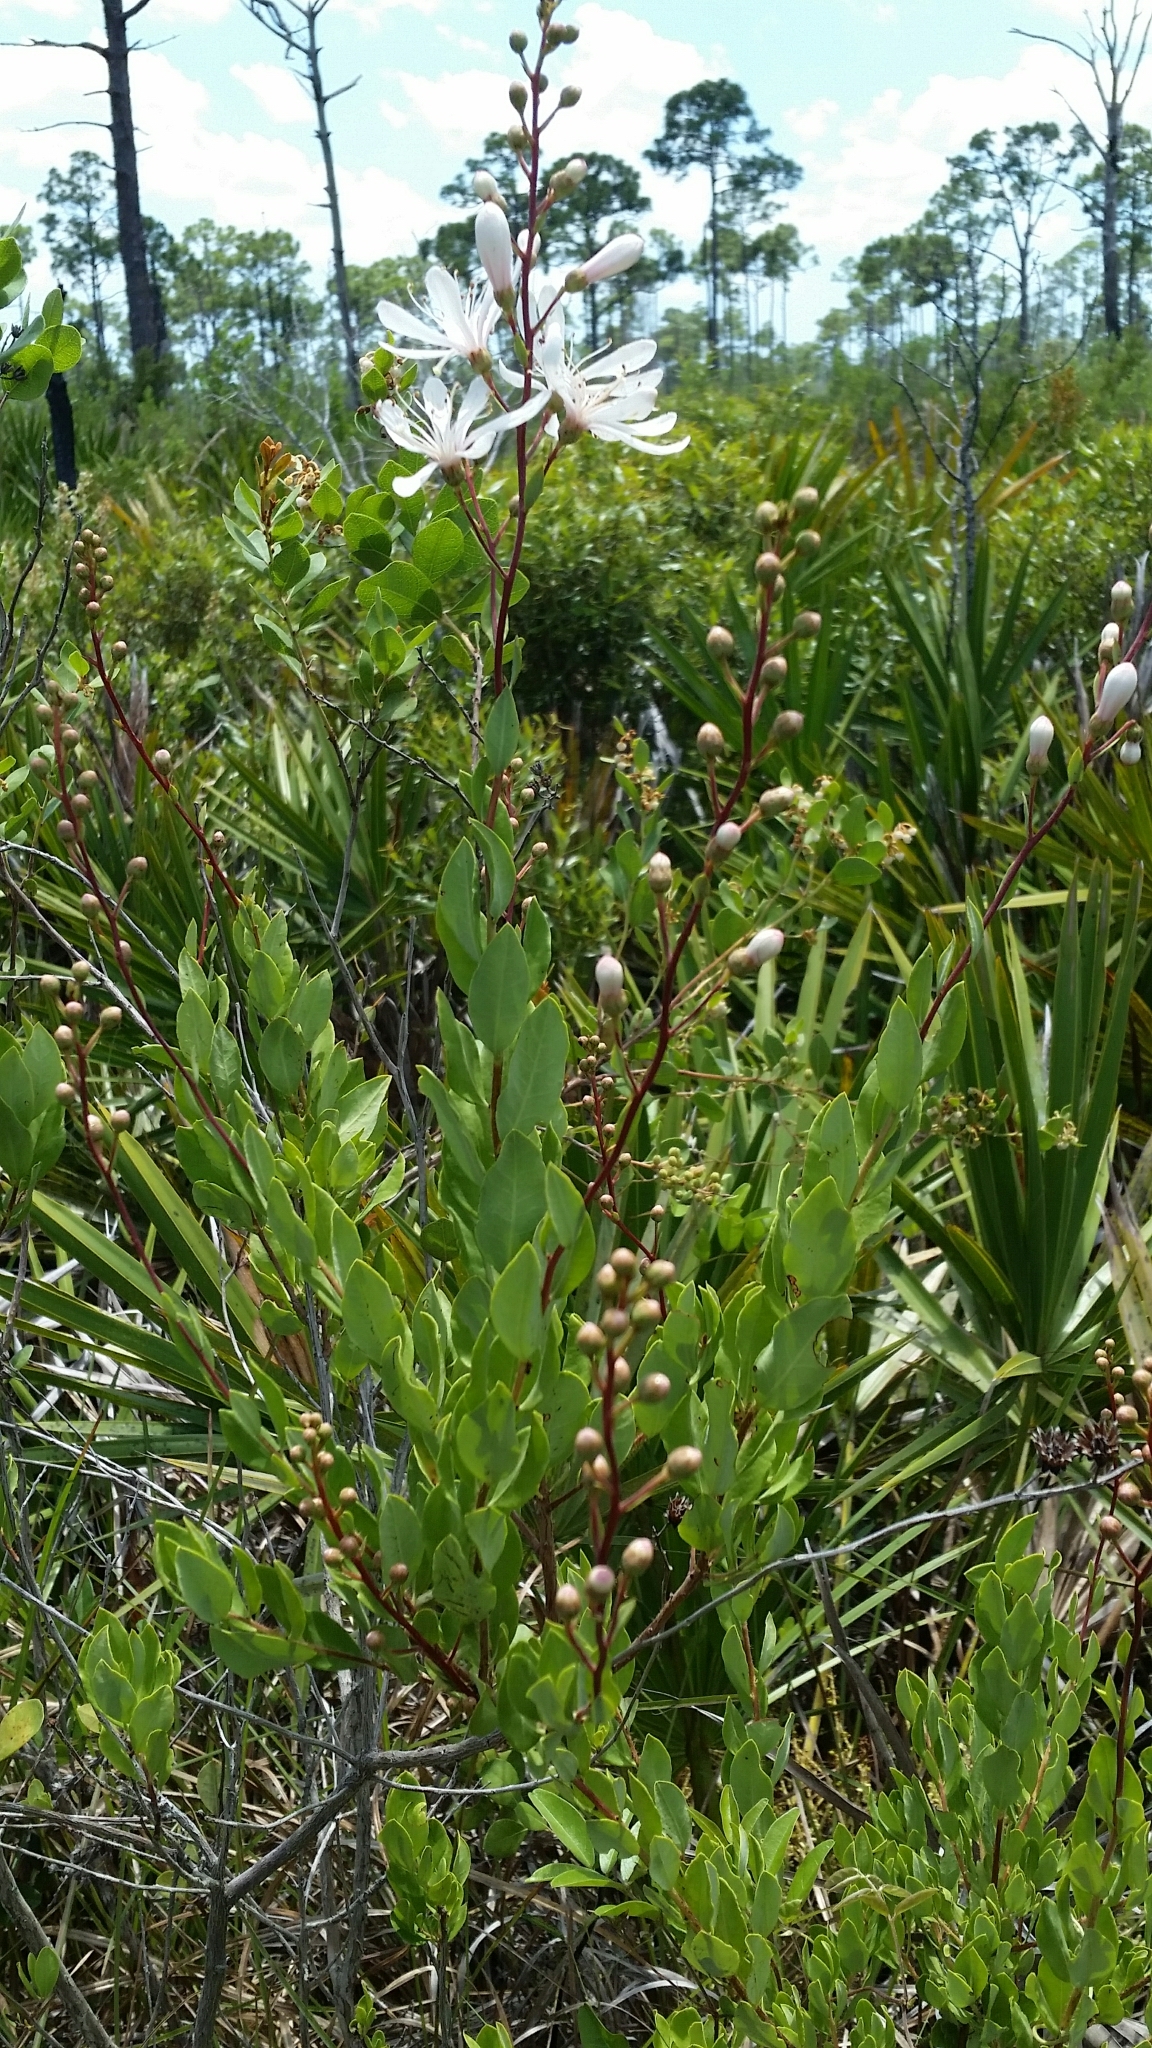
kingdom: Plantae
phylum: Tracheophyta
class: Magnoliopsida
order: Ericales
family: Ericaceae
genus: Bejaria
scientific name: Bejaria racemosa
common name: Tarflower
